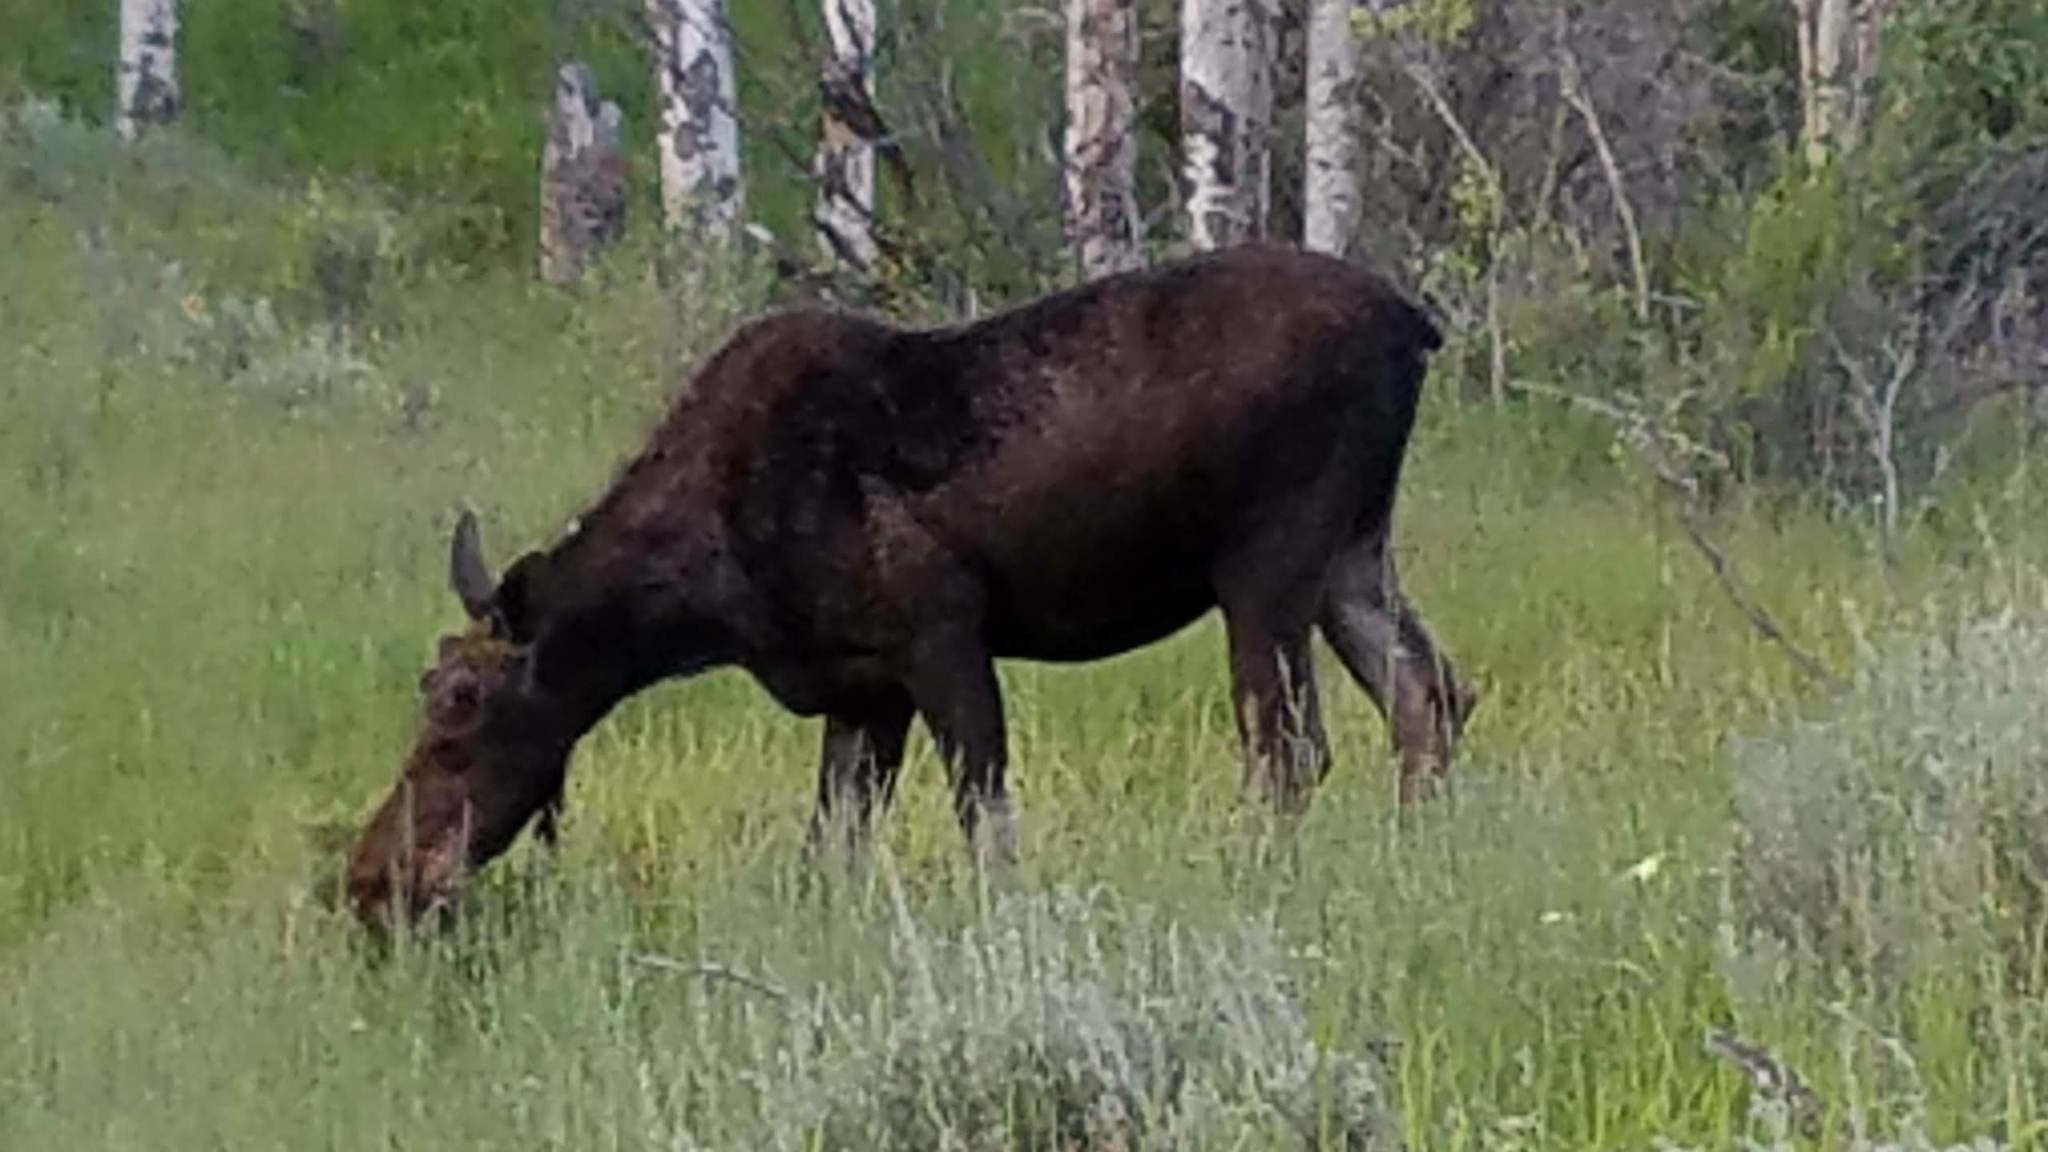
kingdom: Animalia
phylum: Chordata
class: Mammalia
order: Artiodactyla
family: Cervidae
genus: Alces
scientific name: Alces alces
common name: Moose
